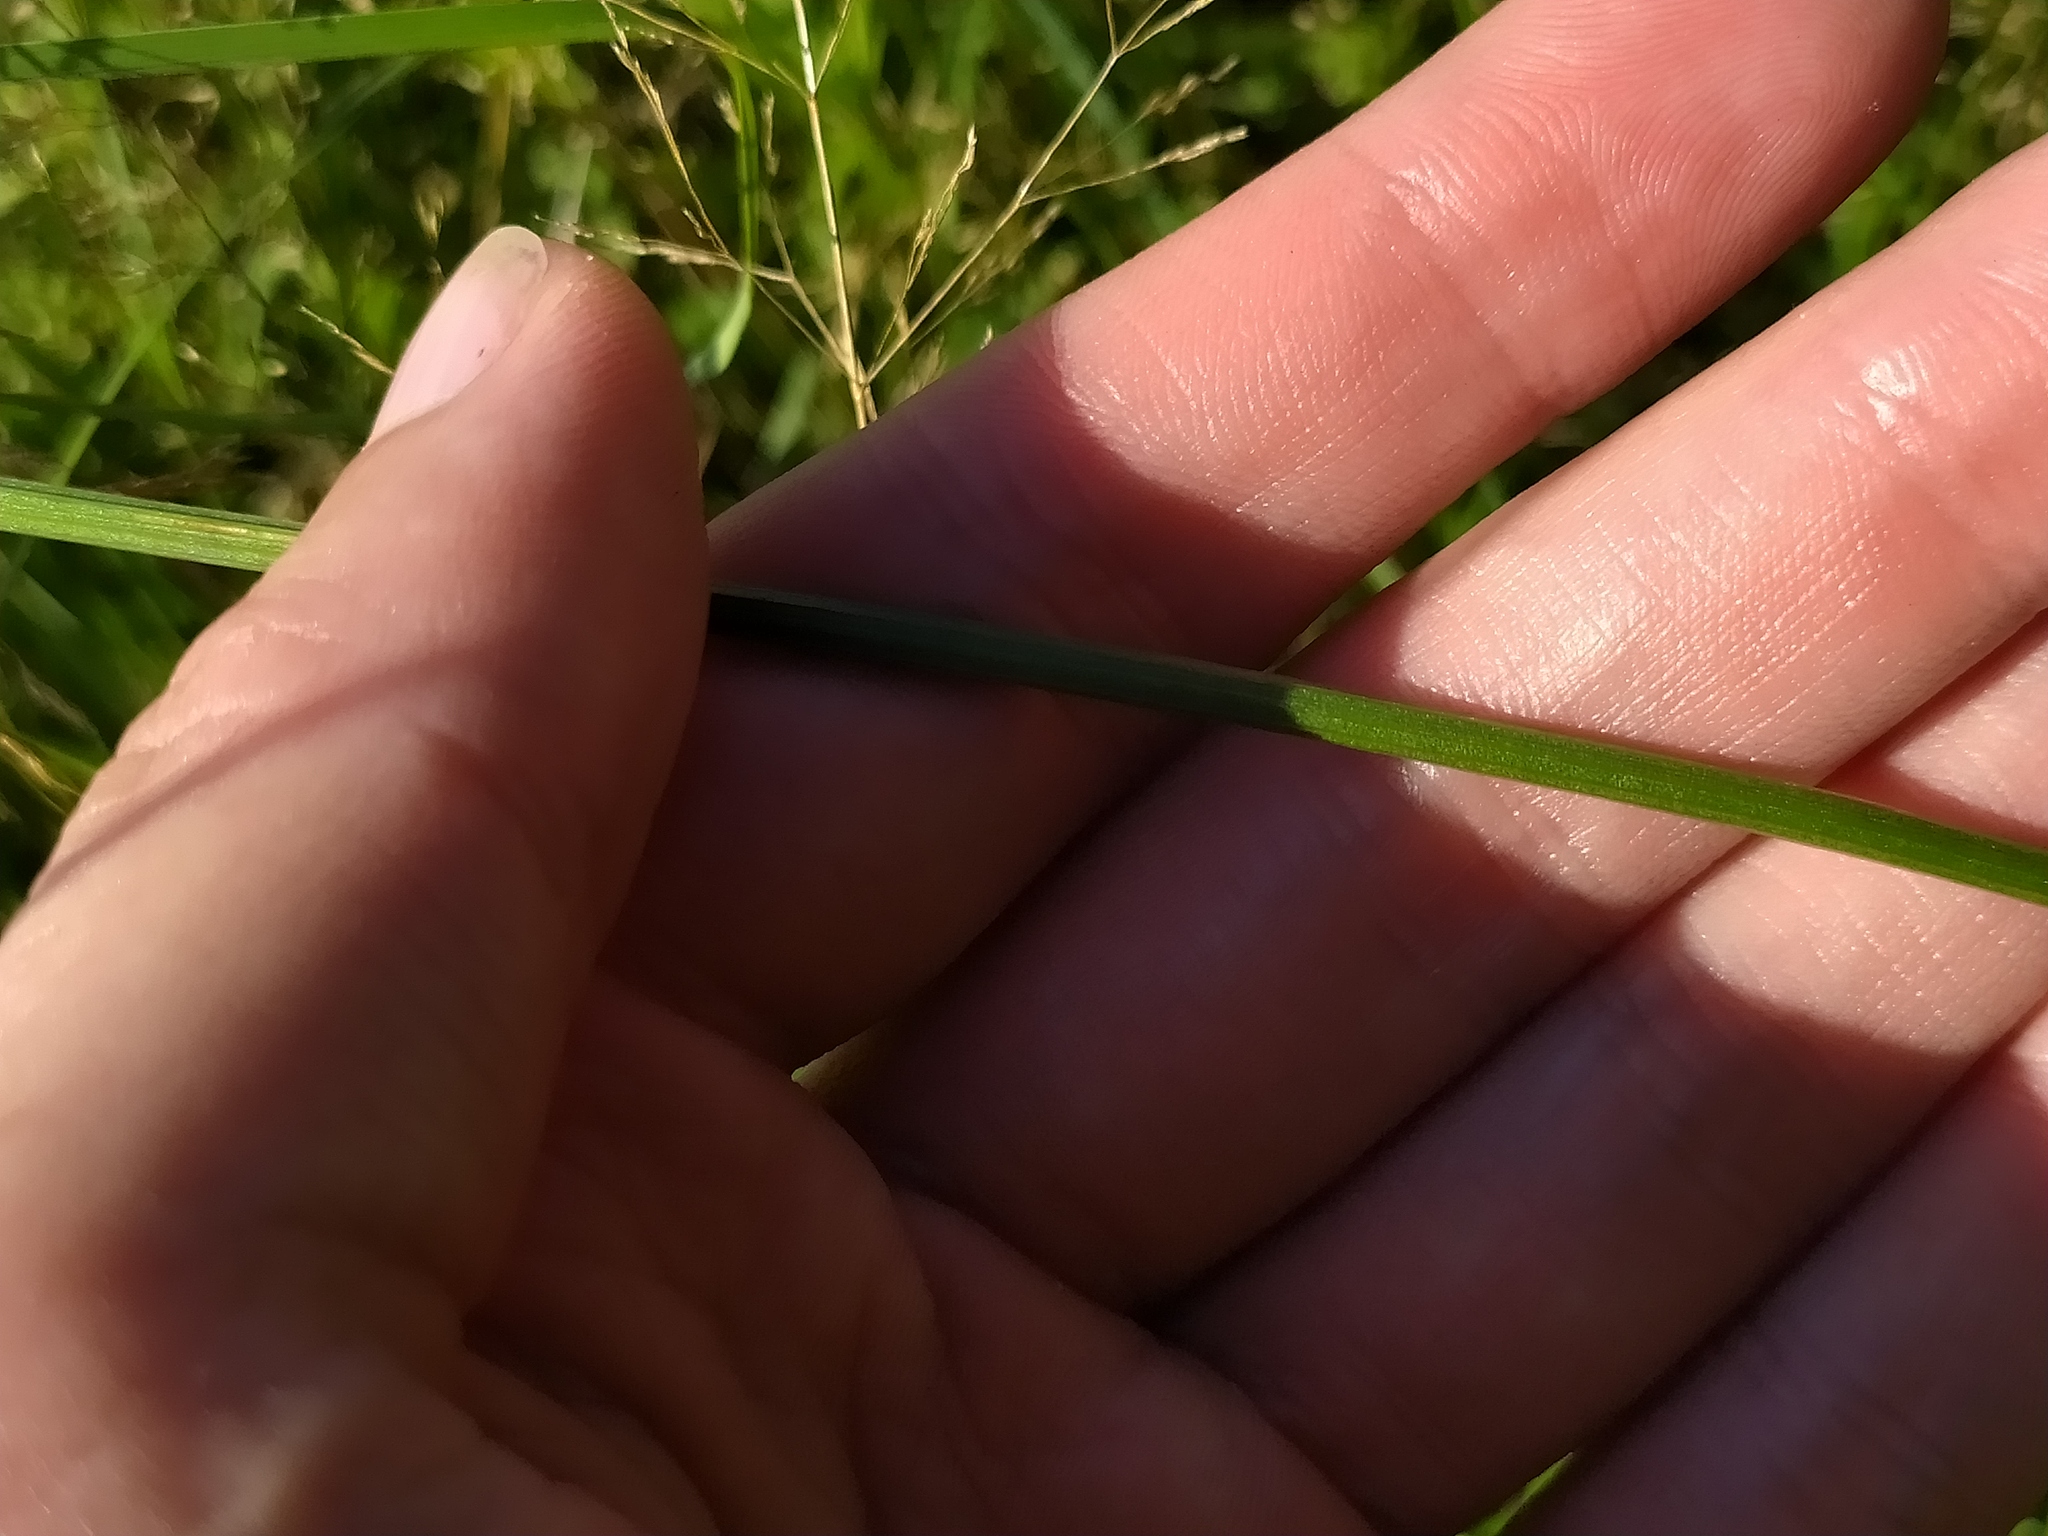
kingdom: Plantae
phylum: Tracheophyta
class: Magnoliopsida
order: Apiales
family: Apiaceae
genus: Selinum
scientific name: Selinum carvifolia
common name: Cambridge milk-parsley
